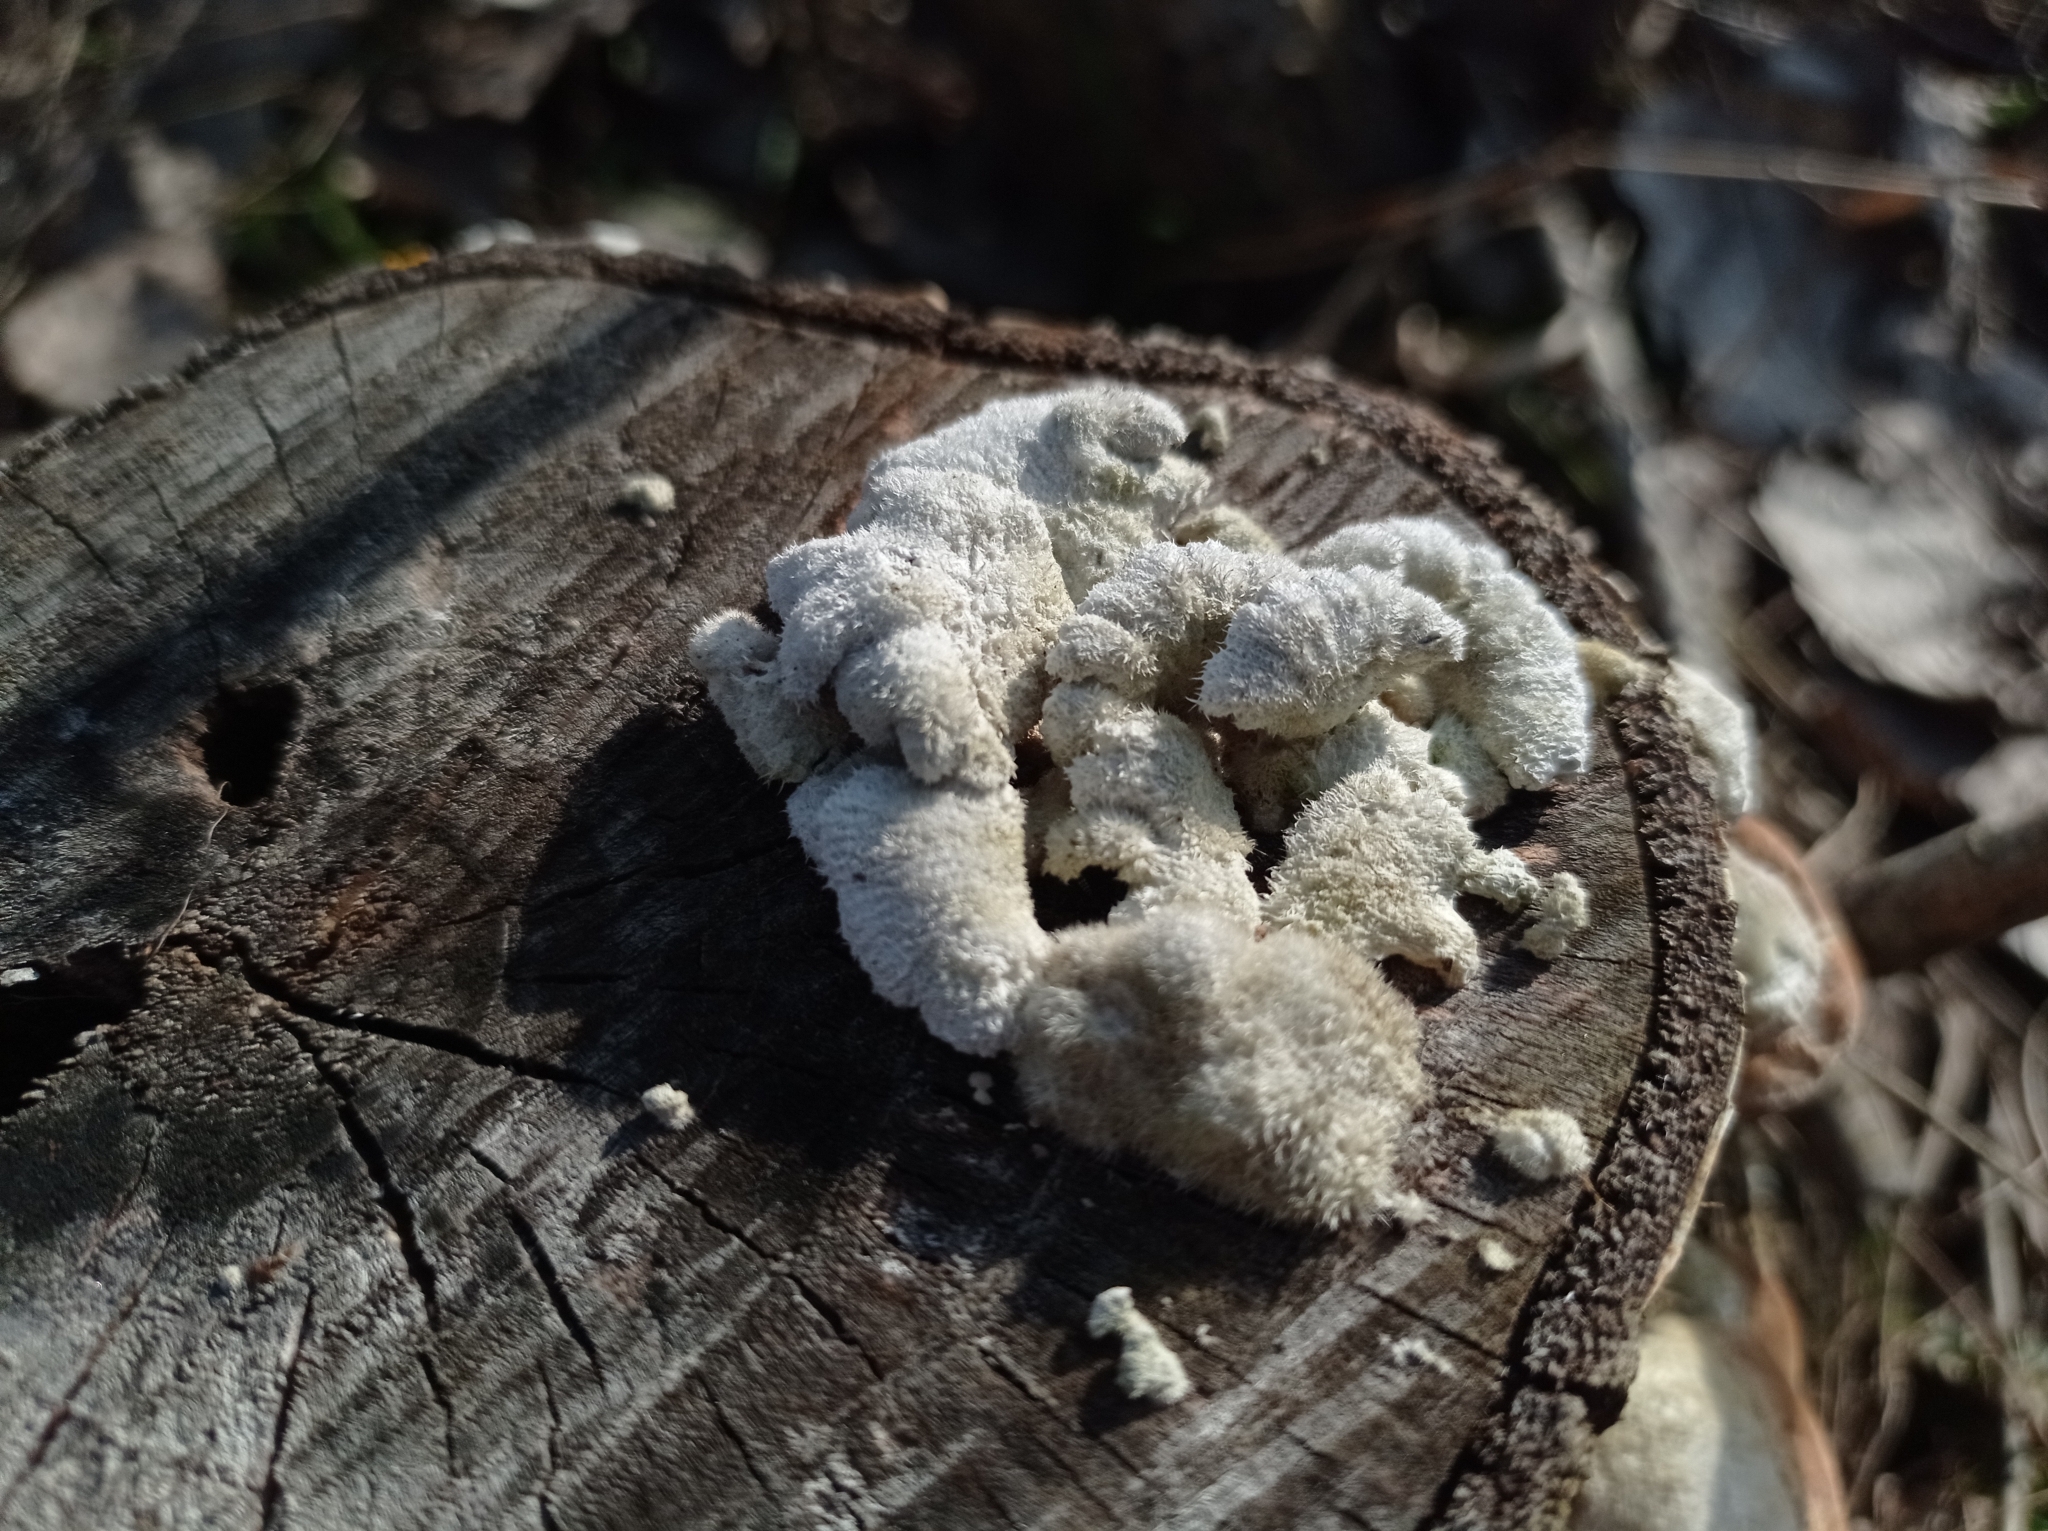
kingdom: Fungi
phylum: Basidiomycota
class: Agaricomycetes
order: Agaricales
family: Schizophyllaceae
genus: Schizophyllum
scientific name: Schizophyllum commune
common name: Common porecrust
